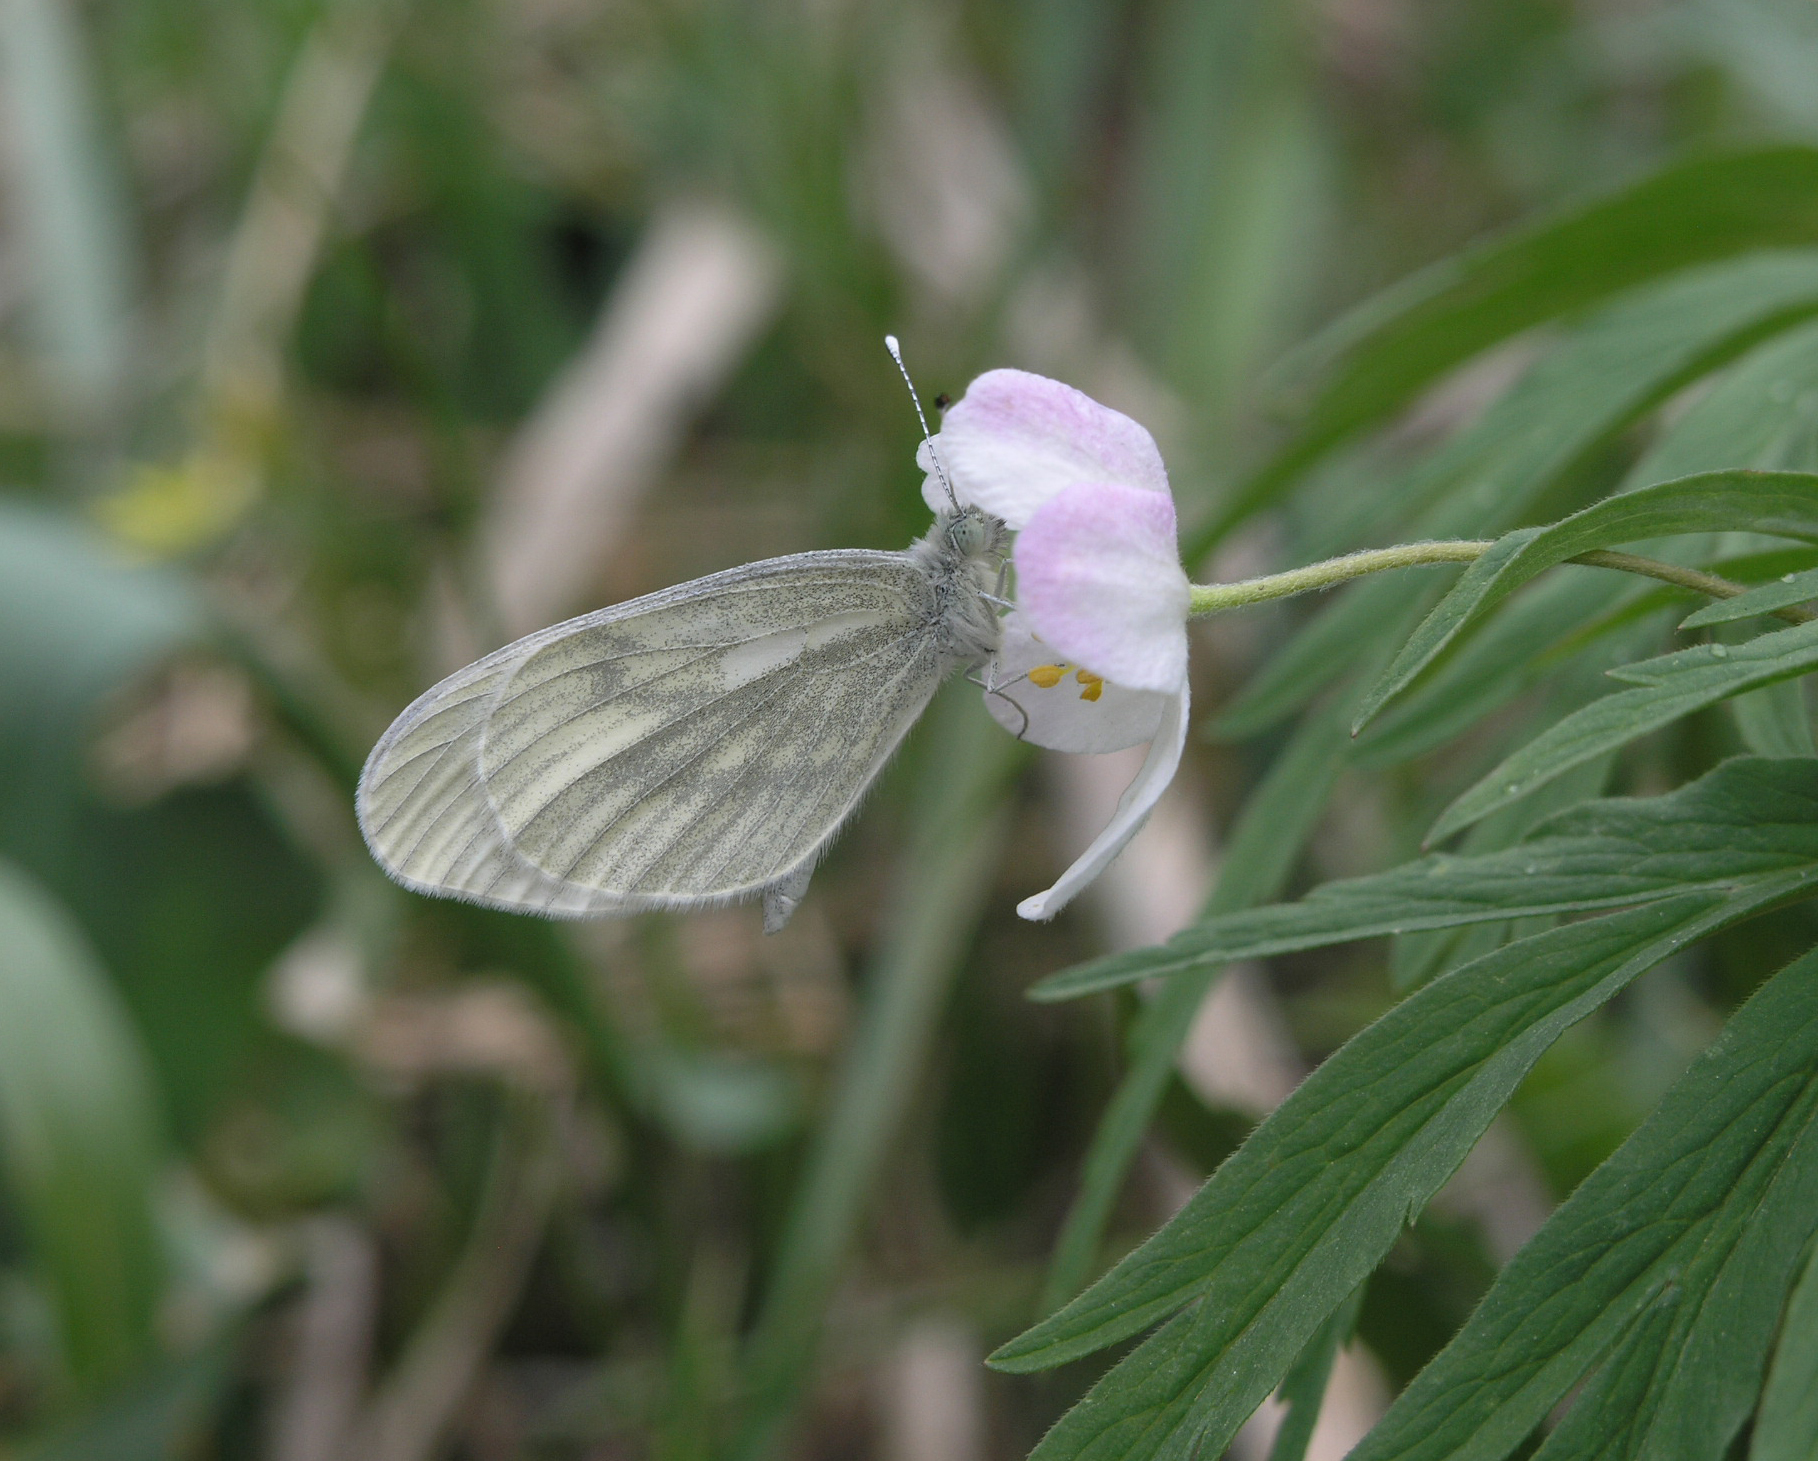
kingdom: Animalia
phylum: Arthropoda
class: Insecta
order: Lepidoptera
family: Pieridae
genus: Leptidea
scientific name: Leptidea morsei
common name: Fenton's wood white
